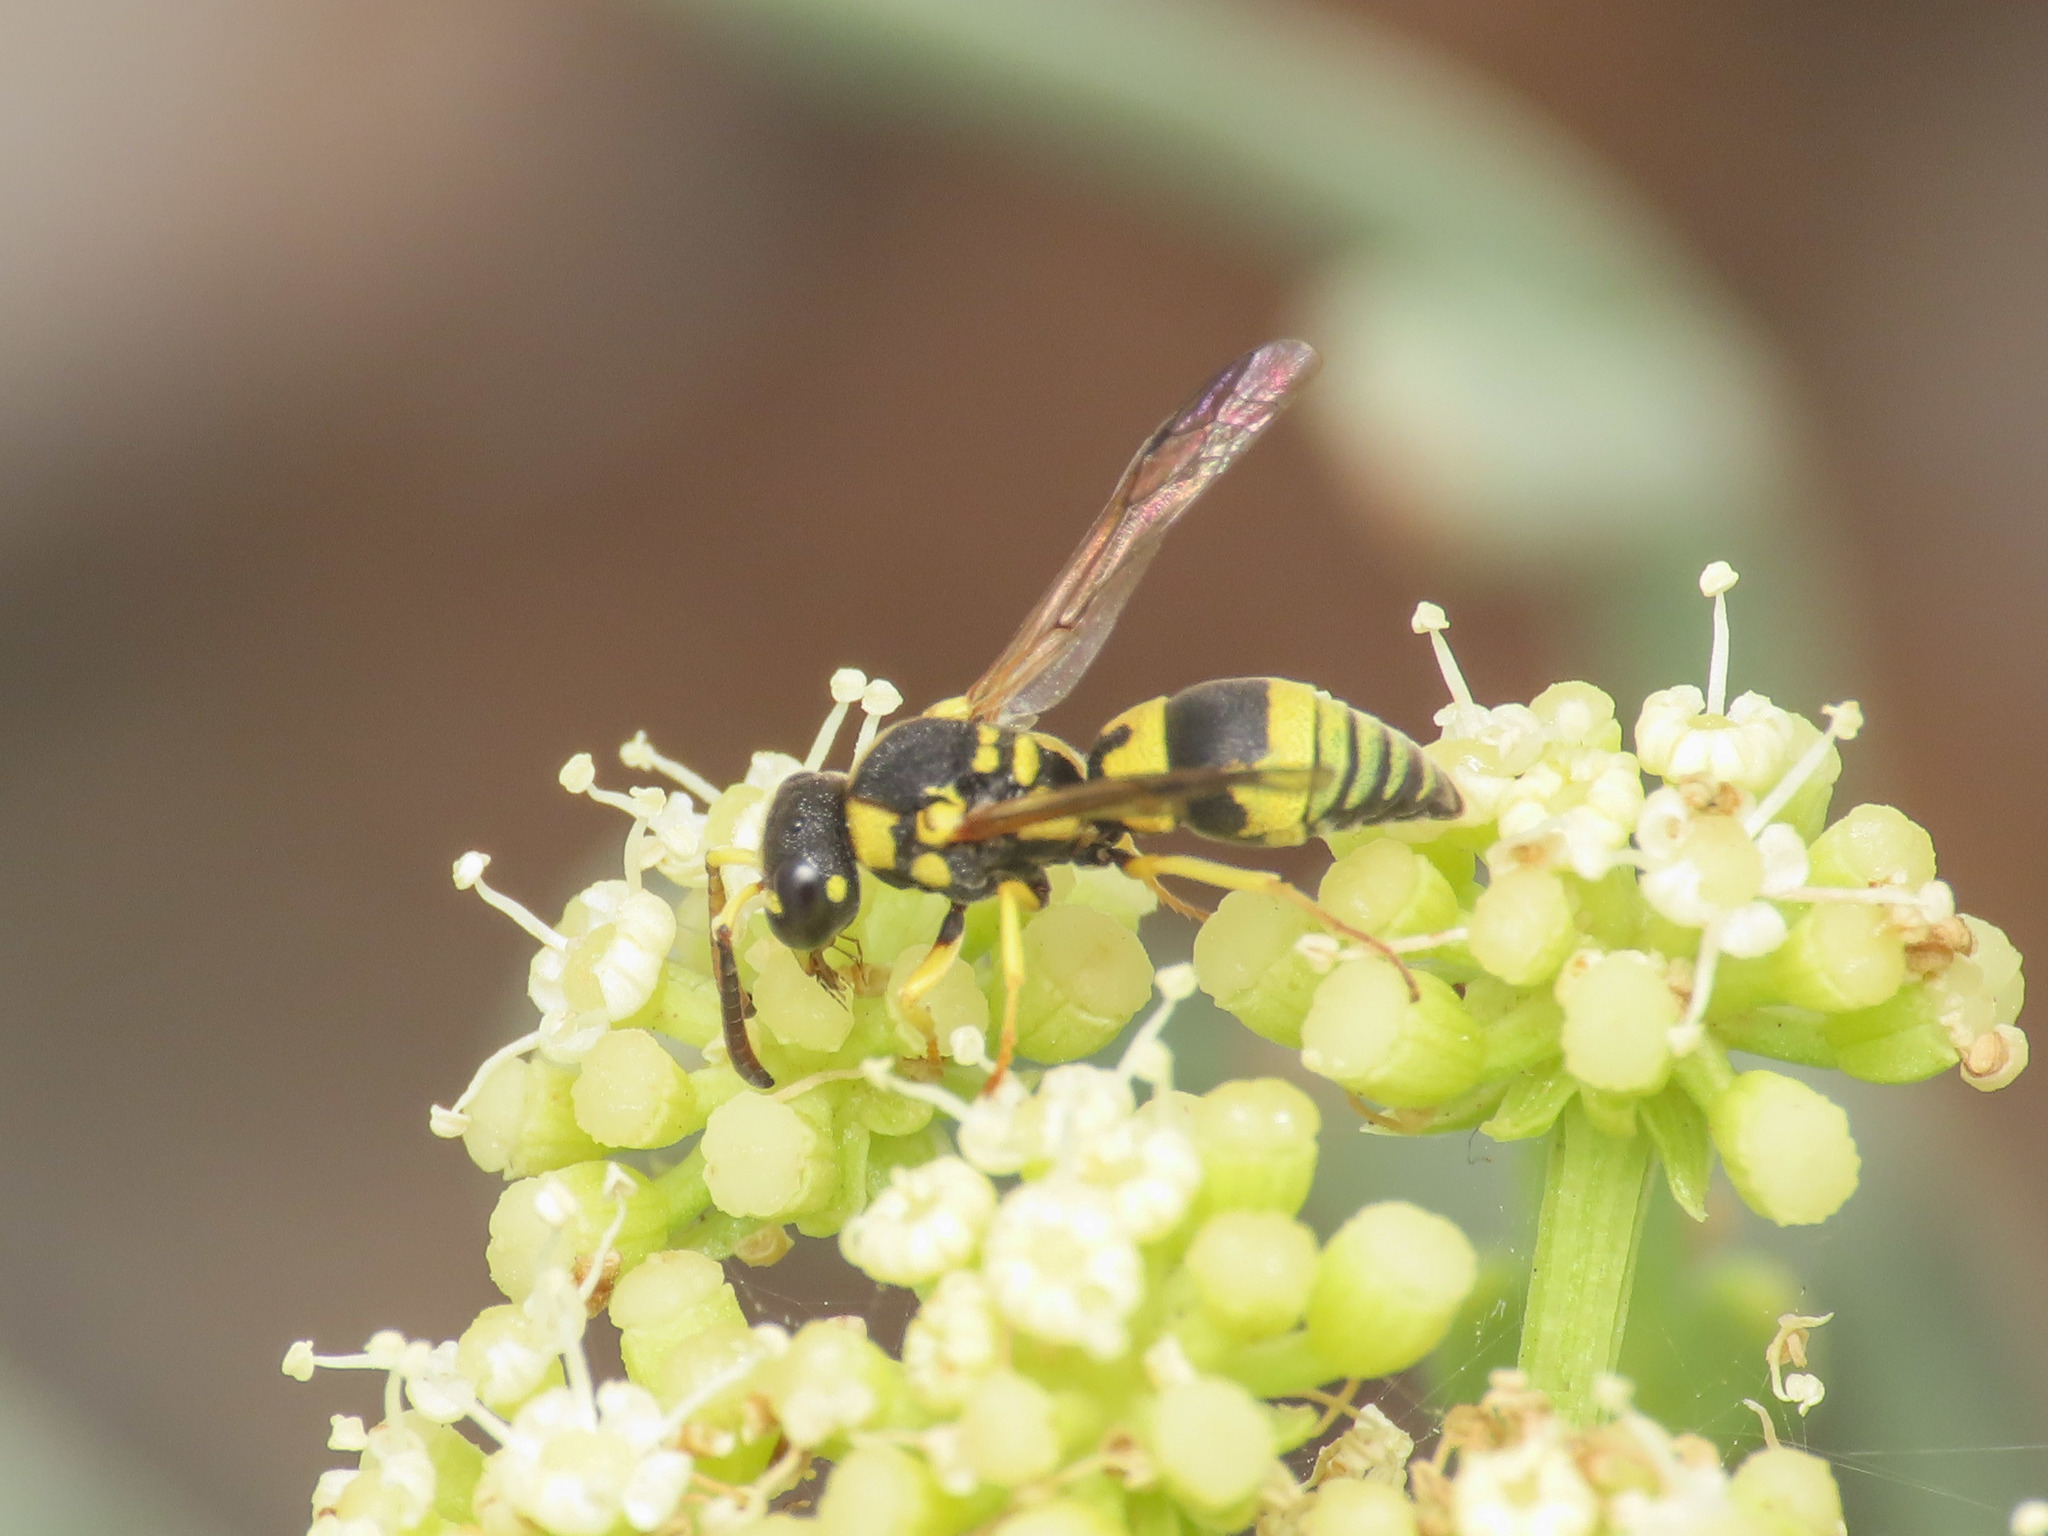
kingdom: Animalia
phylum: Arthropoda
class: Insecta
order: Hymenoptera
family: Eumenidae
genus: Rhynchalastor
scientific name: Rhynchalastor fastidiosissimus
